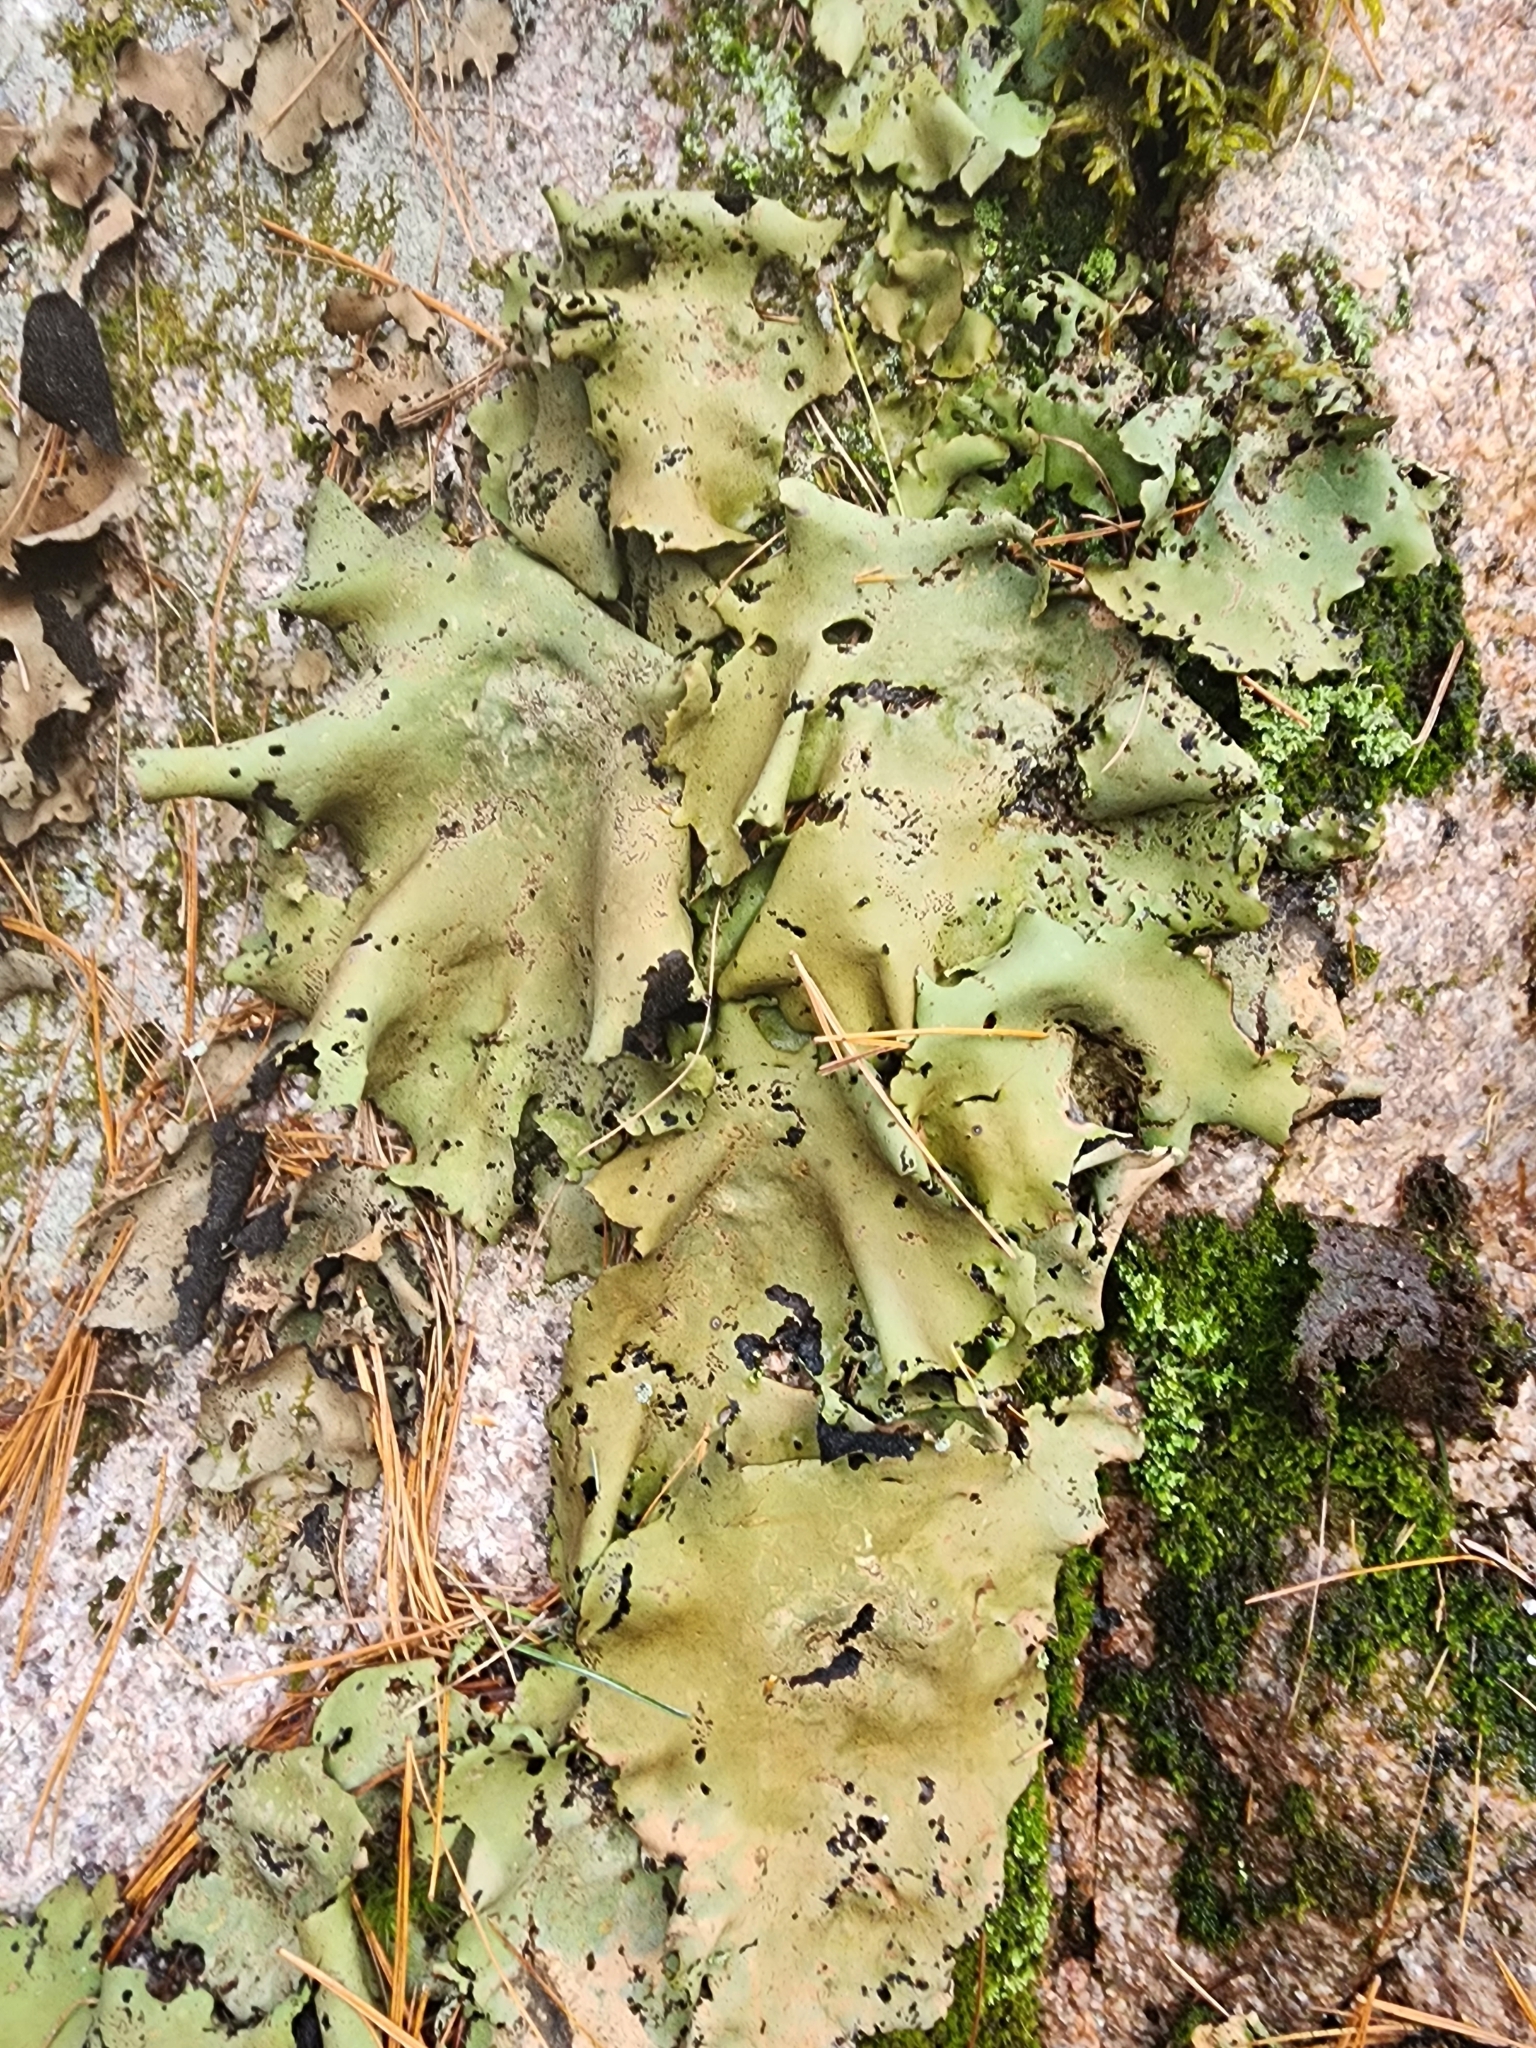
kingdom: Fungi
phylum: Ascomycota
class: Lecanoromycetes
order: Umbilicariales
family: Umbilicariaceae
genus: Umbilicaria
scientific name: Umbilicaria mammulata
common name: Smooth rock tripe
